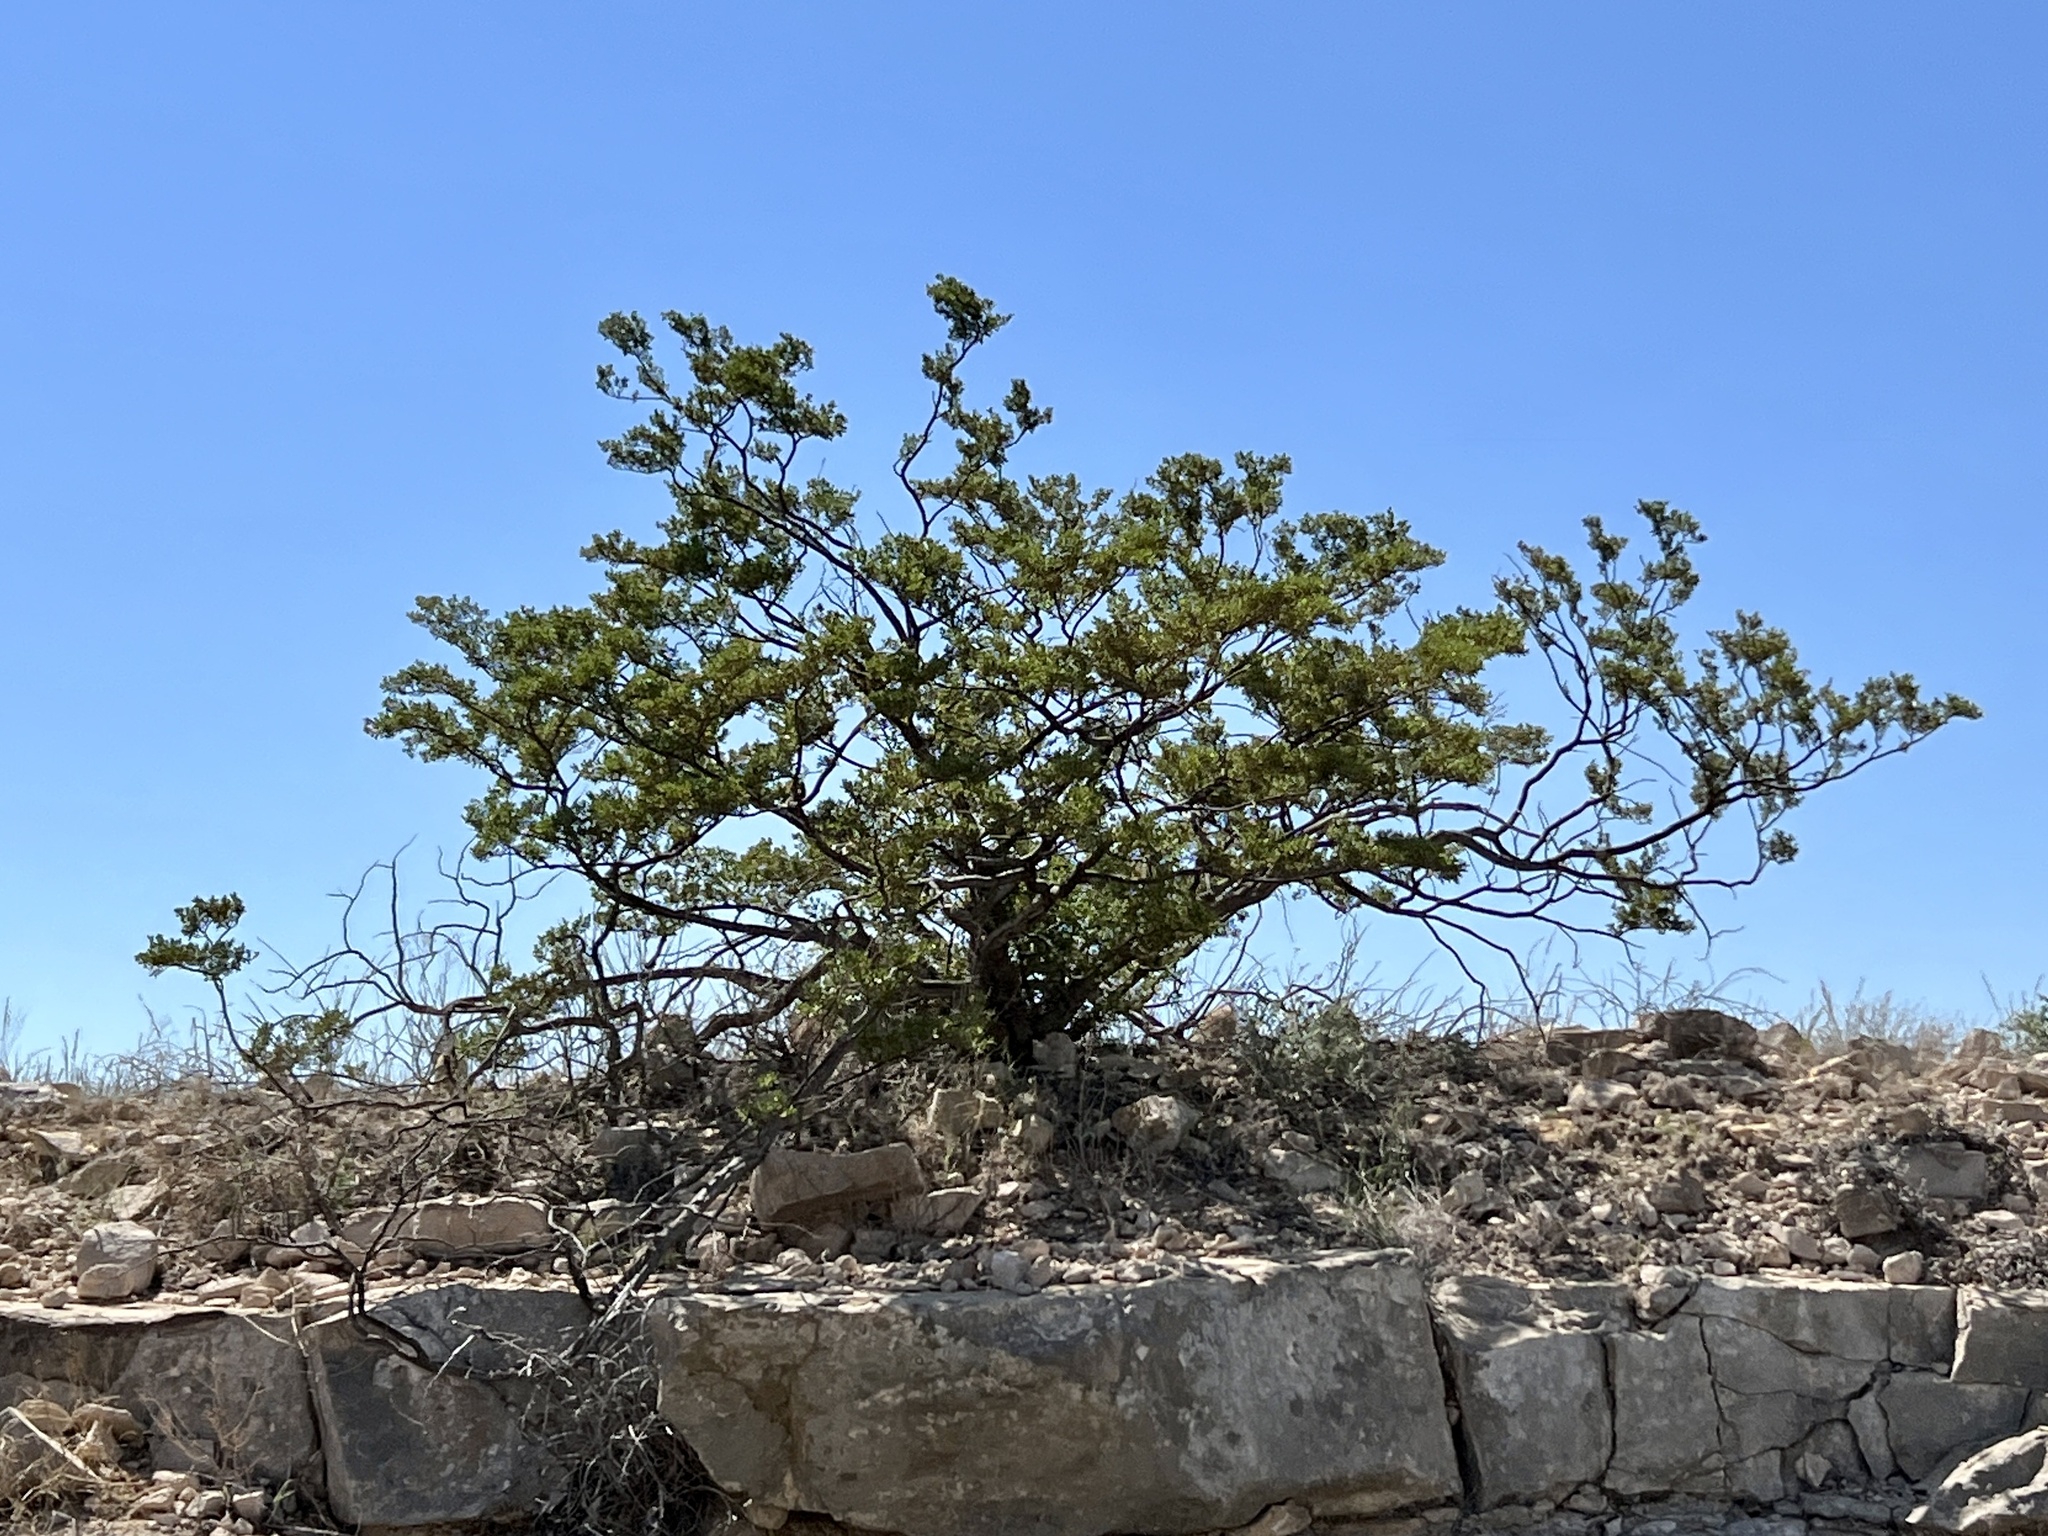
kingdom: Plantae
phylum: Tracheophyta
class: Magnoliopsida
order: Zygophyllales
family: Zygophyllaceae
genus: Larrea
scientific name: Larrea tridentata
